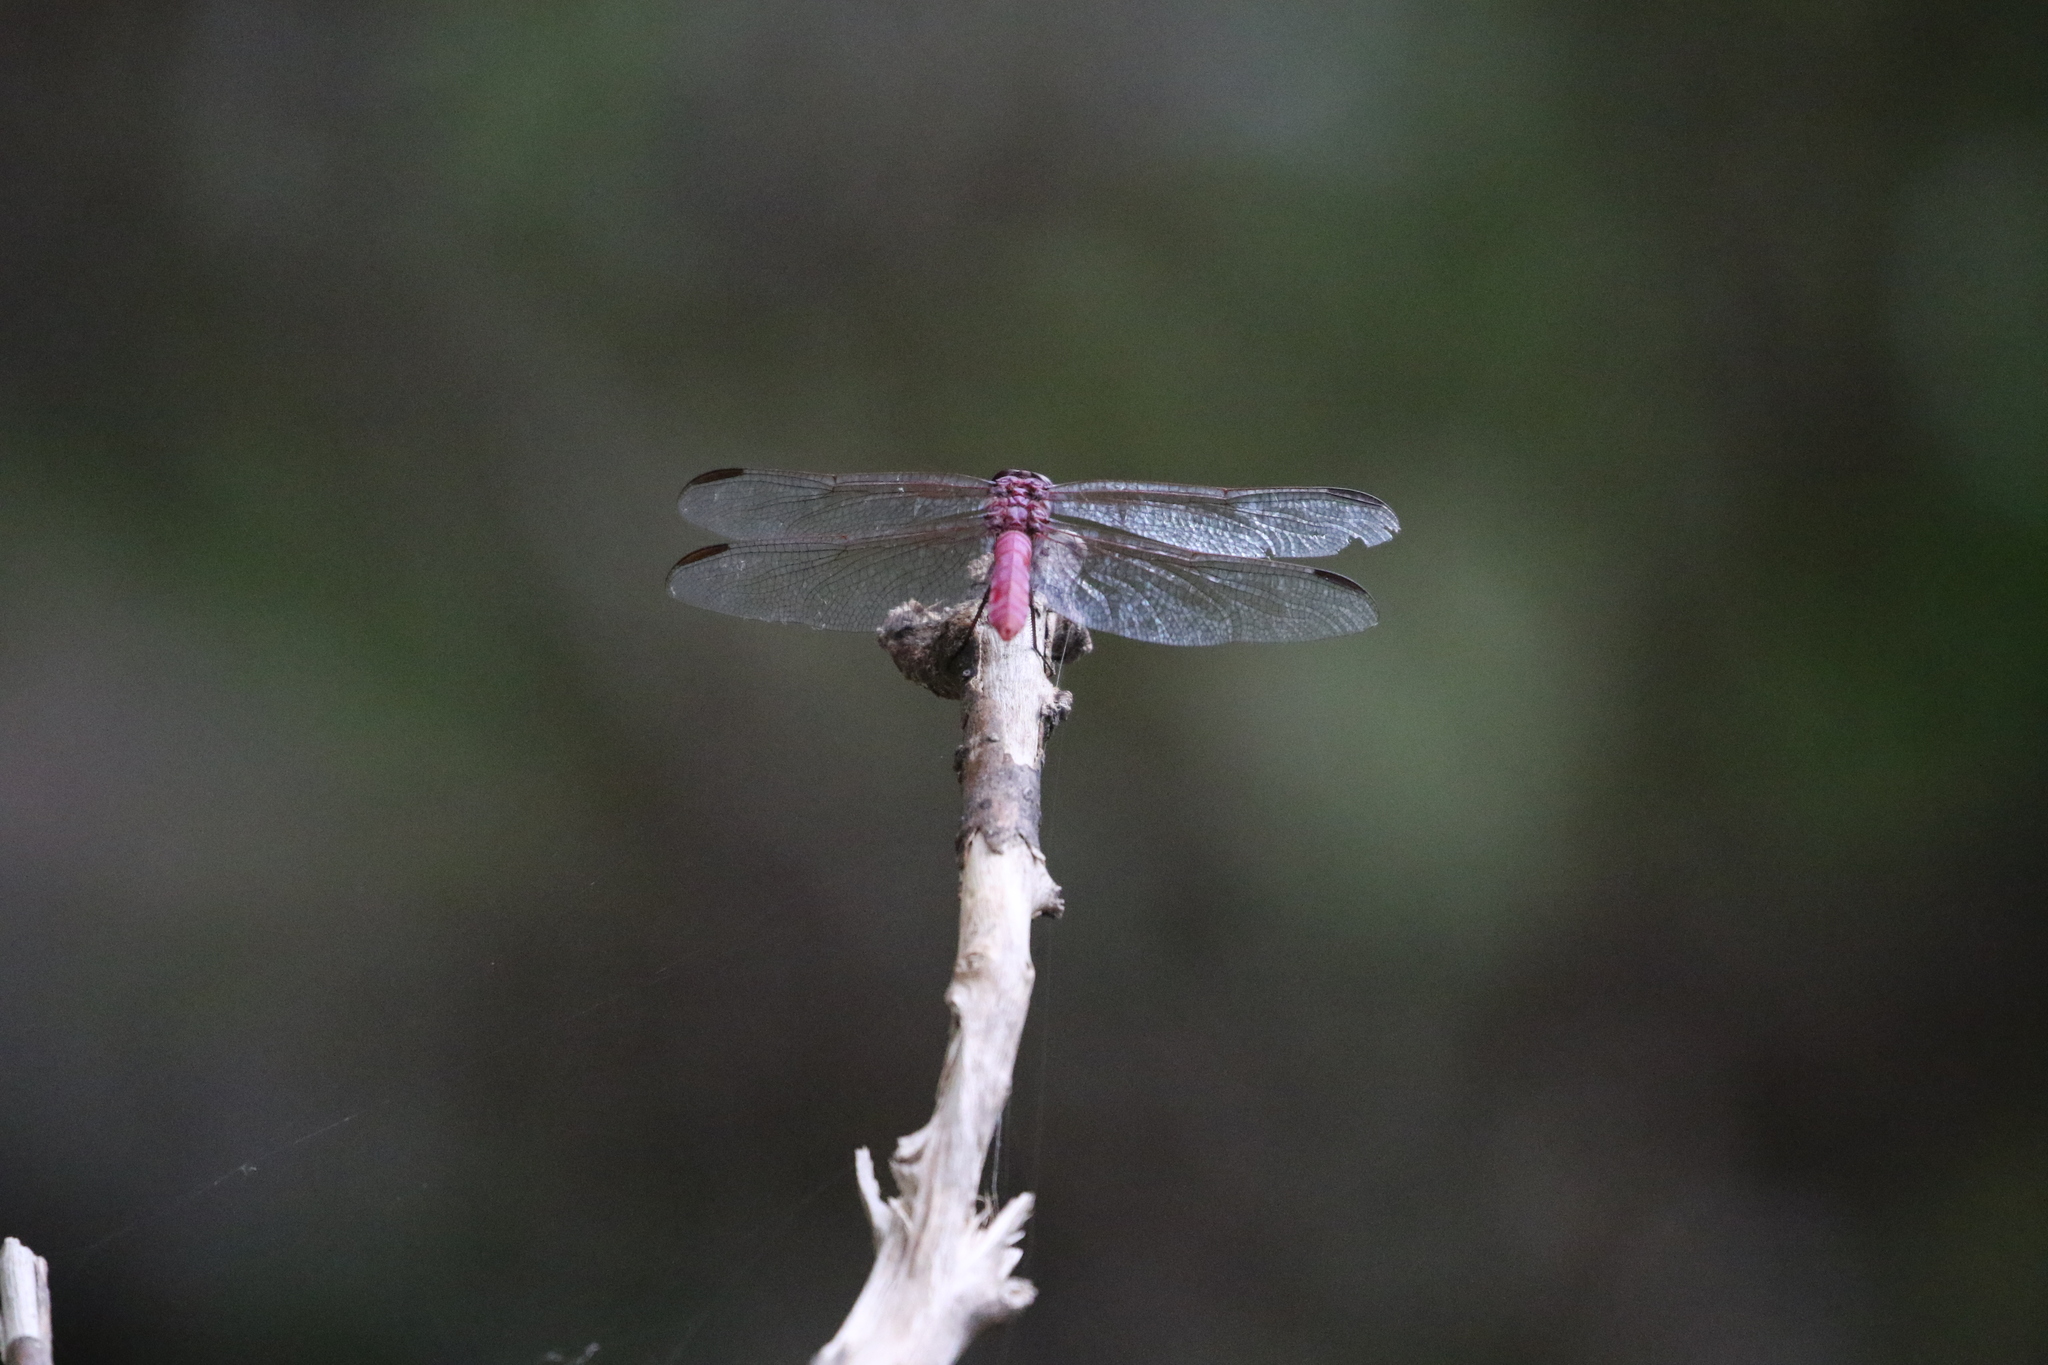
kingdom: Animalia
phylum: Arthropoda
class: Insecta
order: Odonata
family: Libellulidae
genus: Orthemis
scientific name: Orthemis ferruginea
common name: Roseate skimmer
